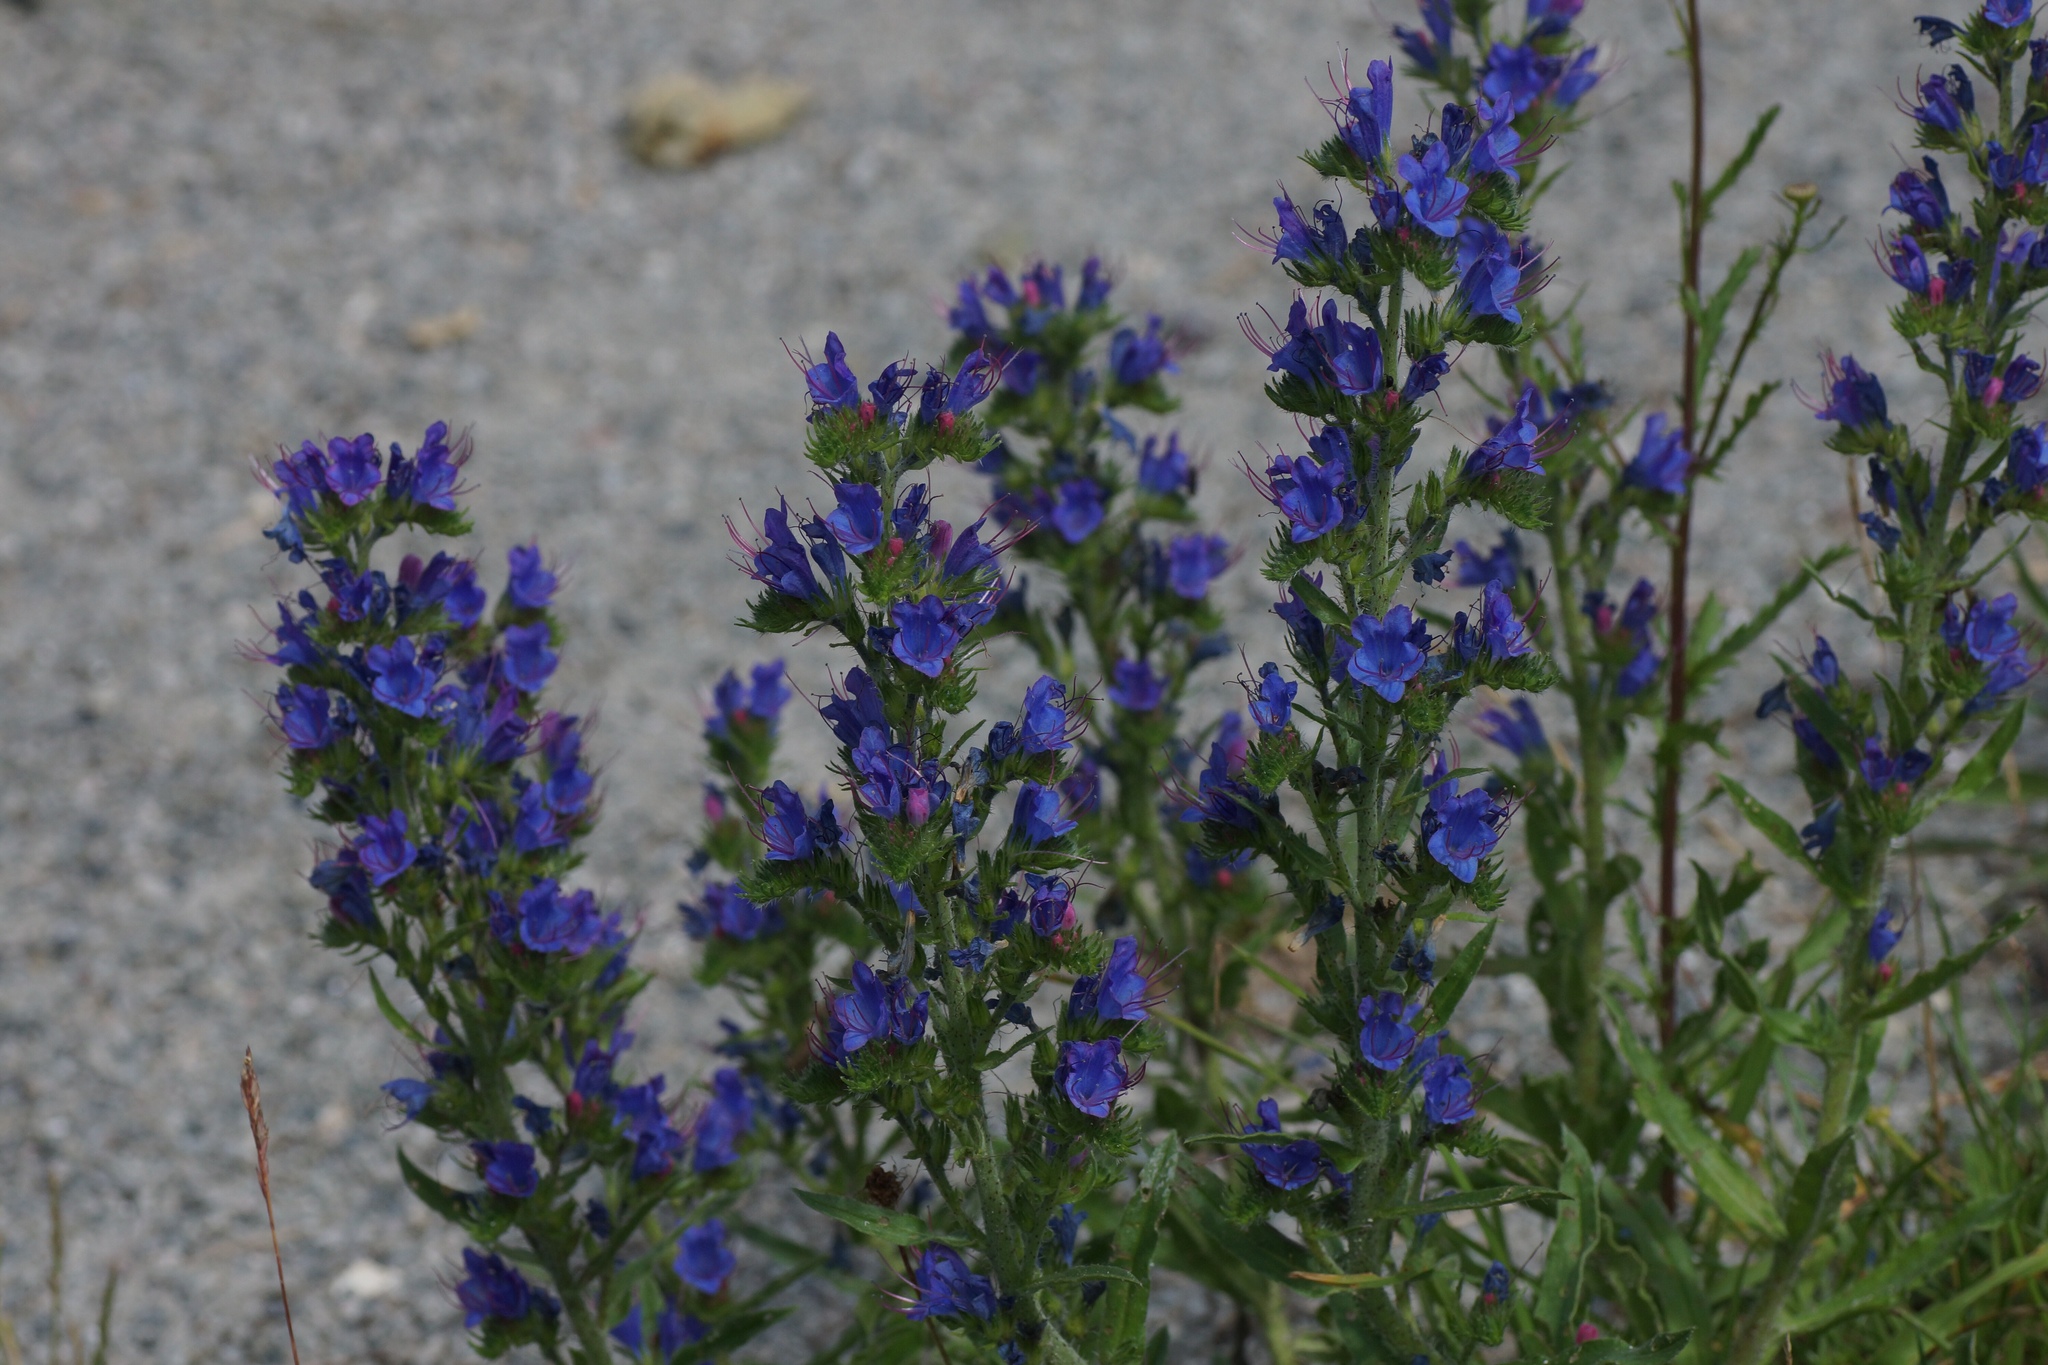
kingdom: Plantae
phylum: Tracheophyta
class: Magnoliopsida
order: Boraginales
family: Boraginaceae
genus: Echium
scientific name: Echium vulgare
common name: Common viper's bugloss
